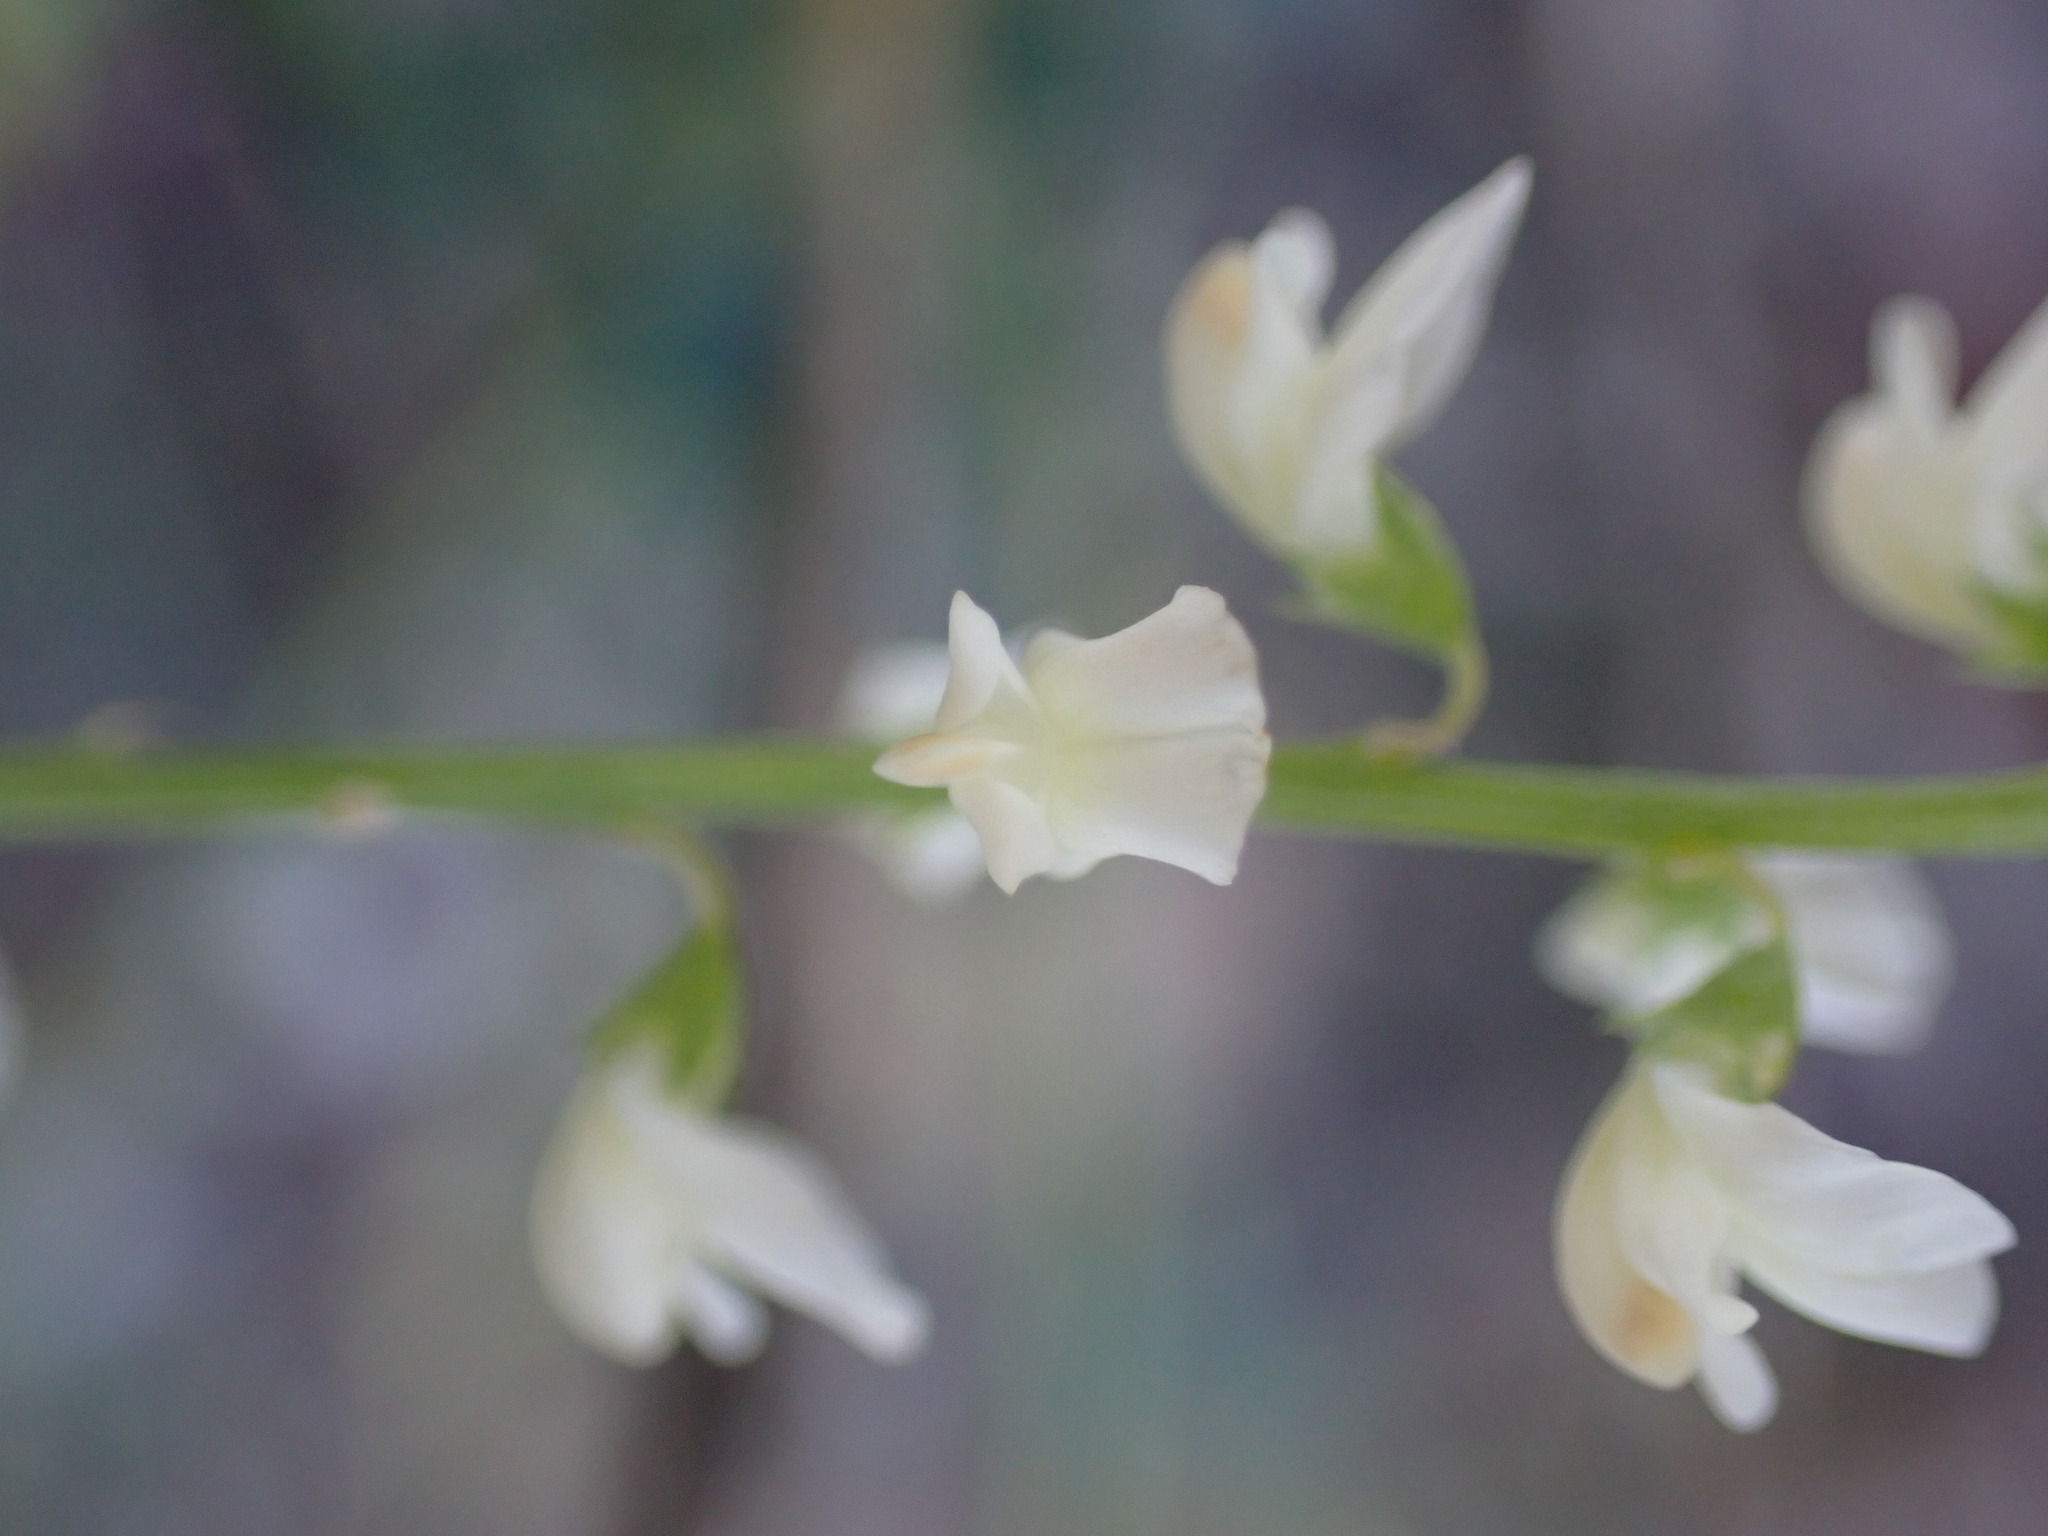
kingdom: Plantae
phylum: Tracheophyta
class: Magnoliopsida
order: Fabales
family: Fabaceae
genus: Melilotus
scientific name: Melilotus albus
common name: White melilot
